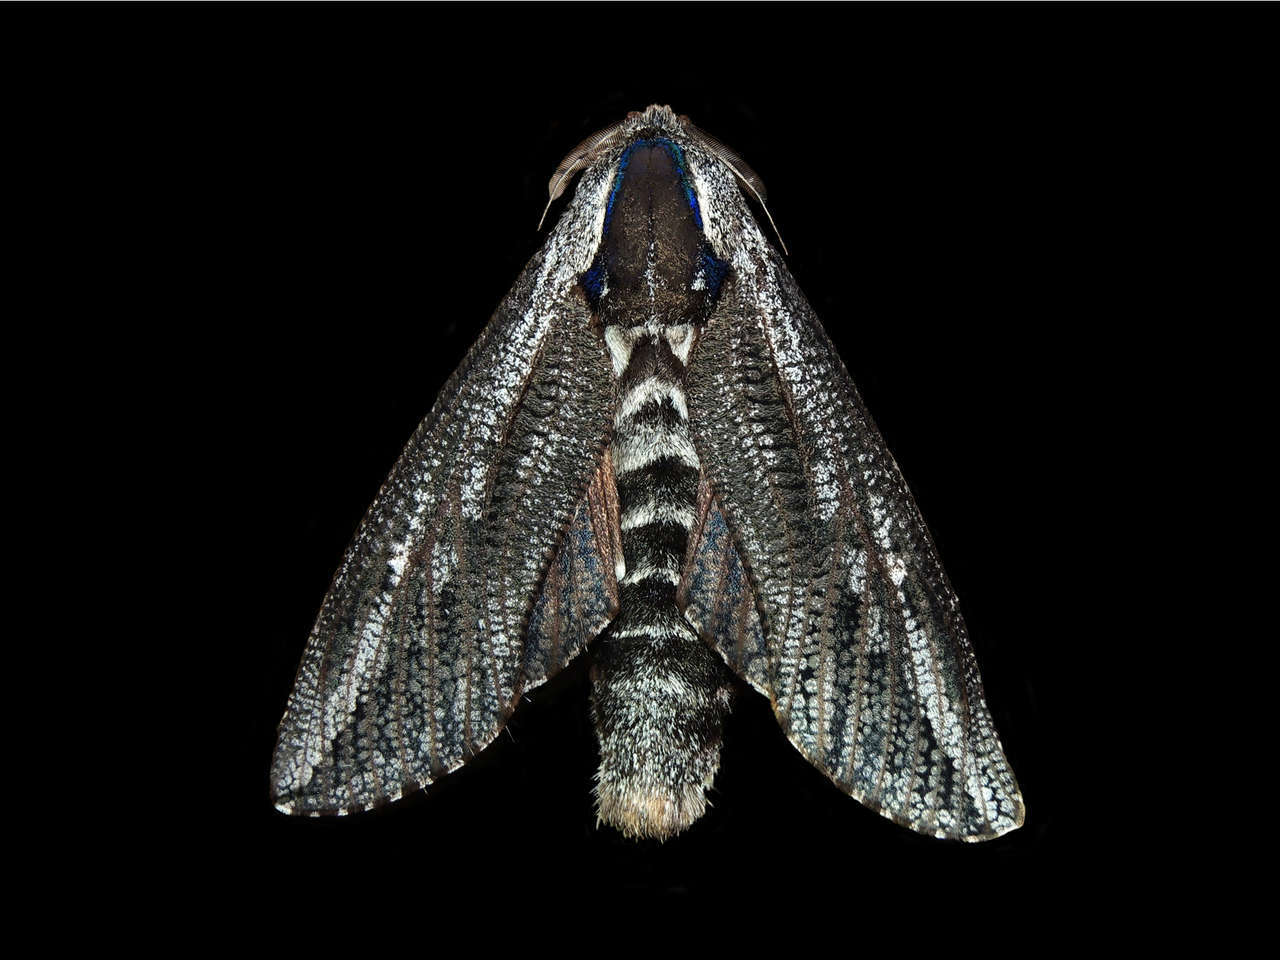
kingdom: Animalia
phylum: Arthropoda
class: Insecta
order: Lepidoptera
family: Cossidae
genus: Endoxyla
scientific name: Endoxyla encalypti
